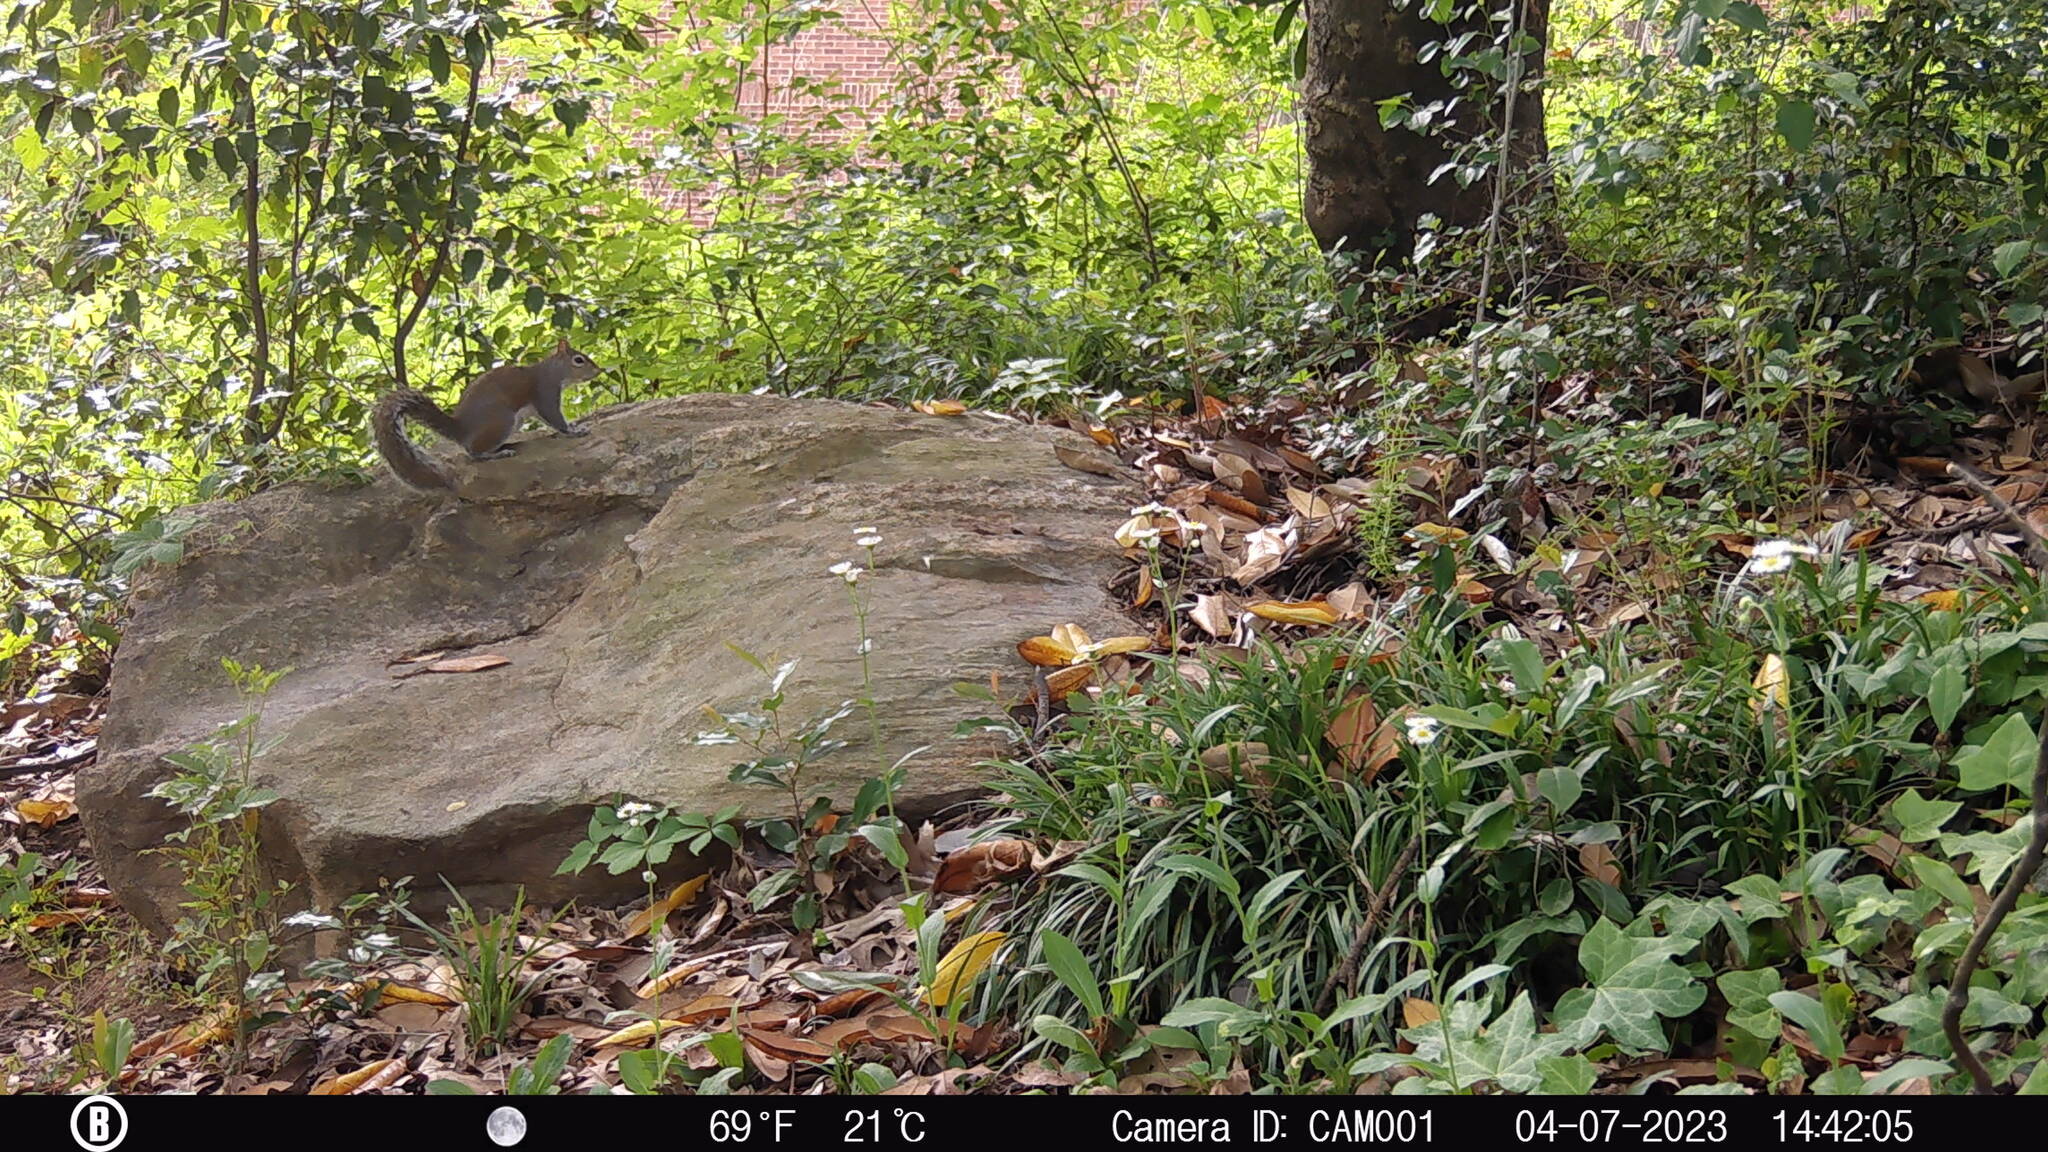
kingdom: Animalia
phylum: Chordata
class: Mammalia
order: Rodentia
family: Sciuridae
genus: Sciurus
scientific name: Sciurus carolinensis
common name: Eastern gray squirrel
